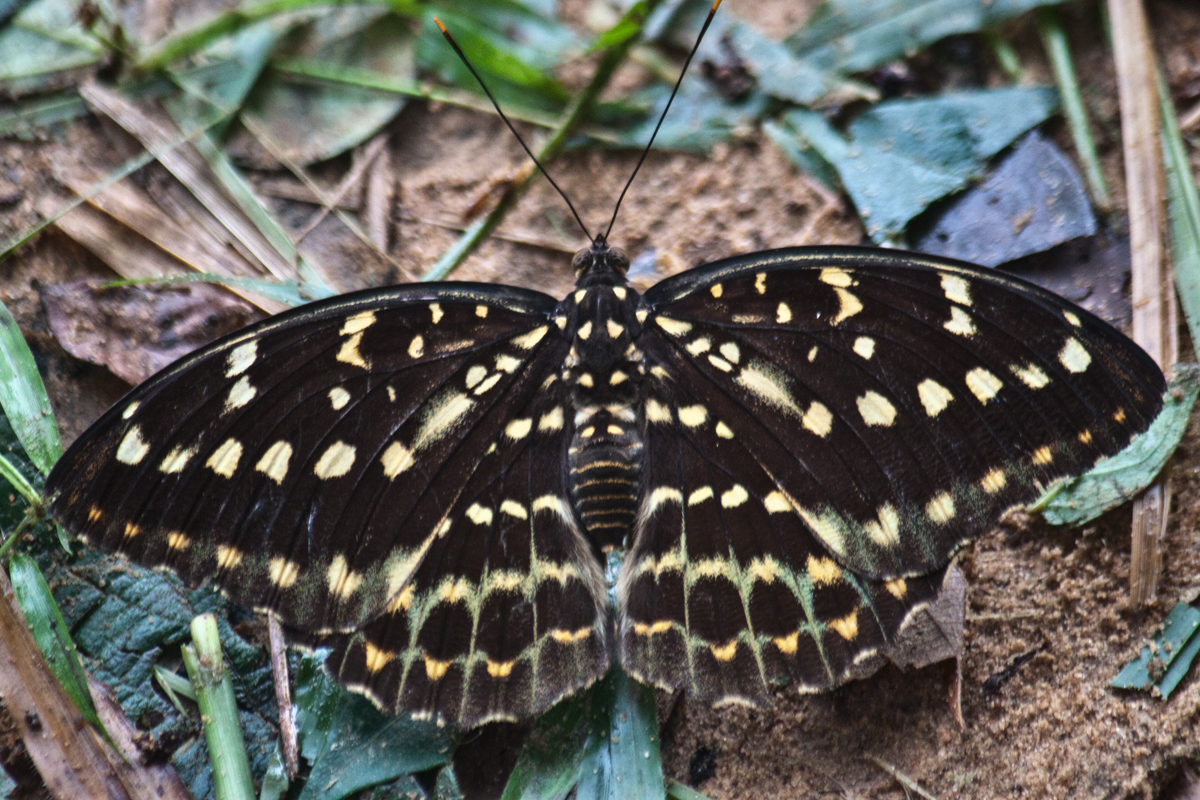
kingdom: Animalia
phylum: Arthropoda
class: Insecta
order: Lepidoptera
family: Nymphalidae
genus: Lexias
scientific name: Lexias pardalis
